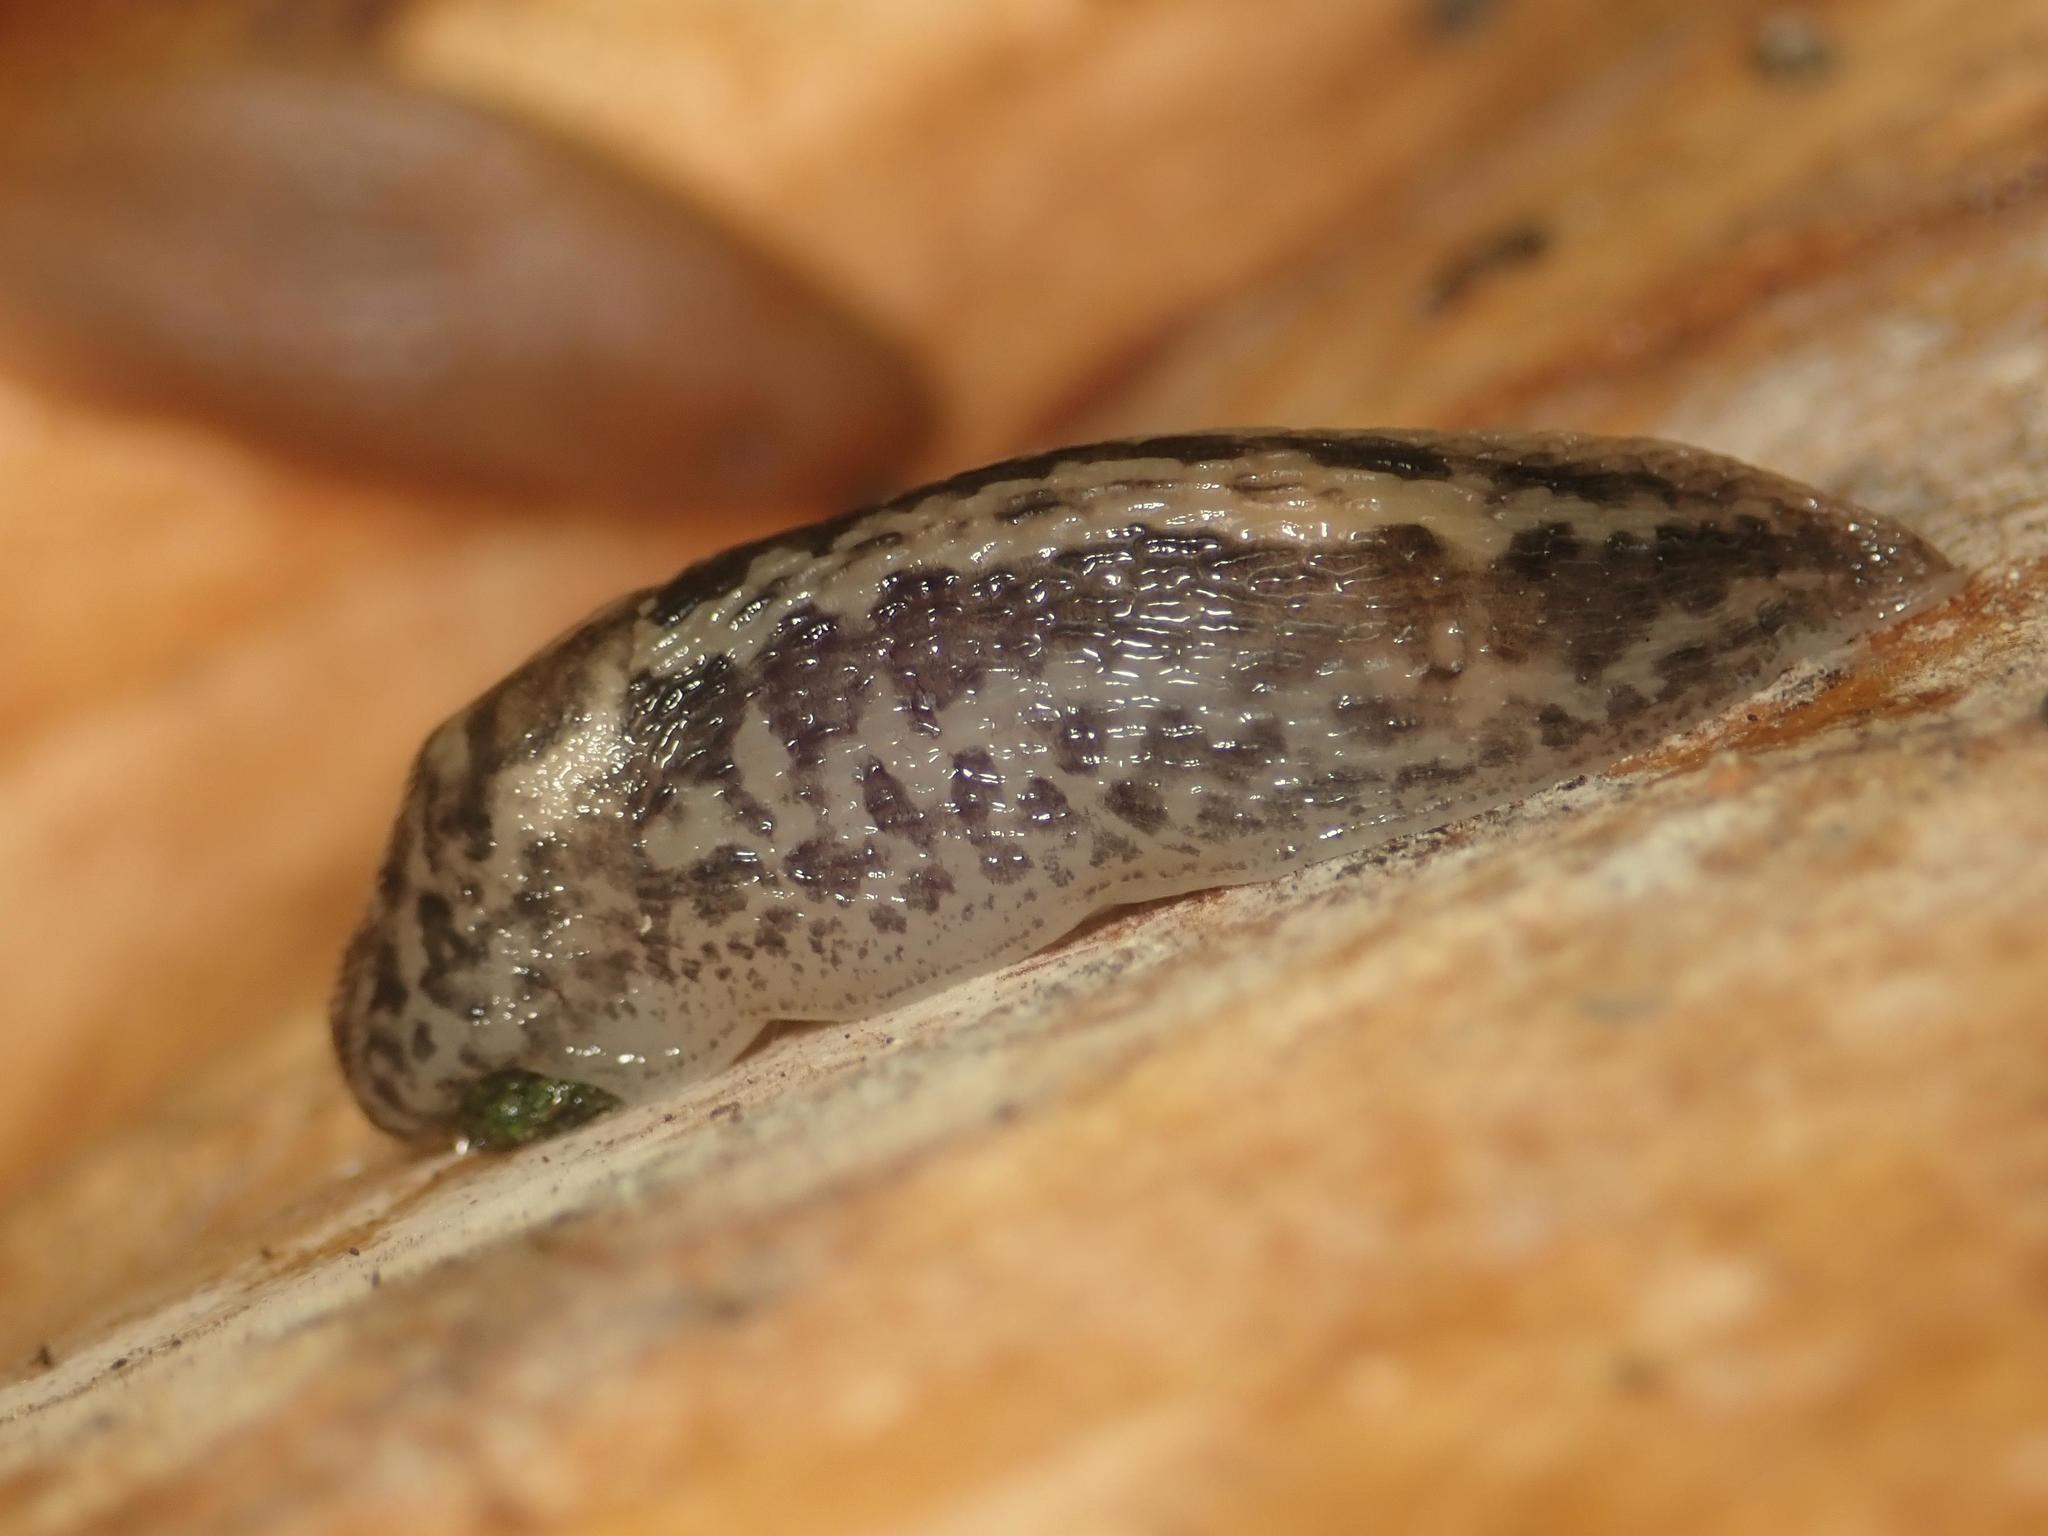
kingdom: Animalia
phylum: Mollusca
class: Gastropoda
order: Stylommatophora
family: Limacidae
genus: Limax
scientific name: Limax maximus
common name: Great grey slug
